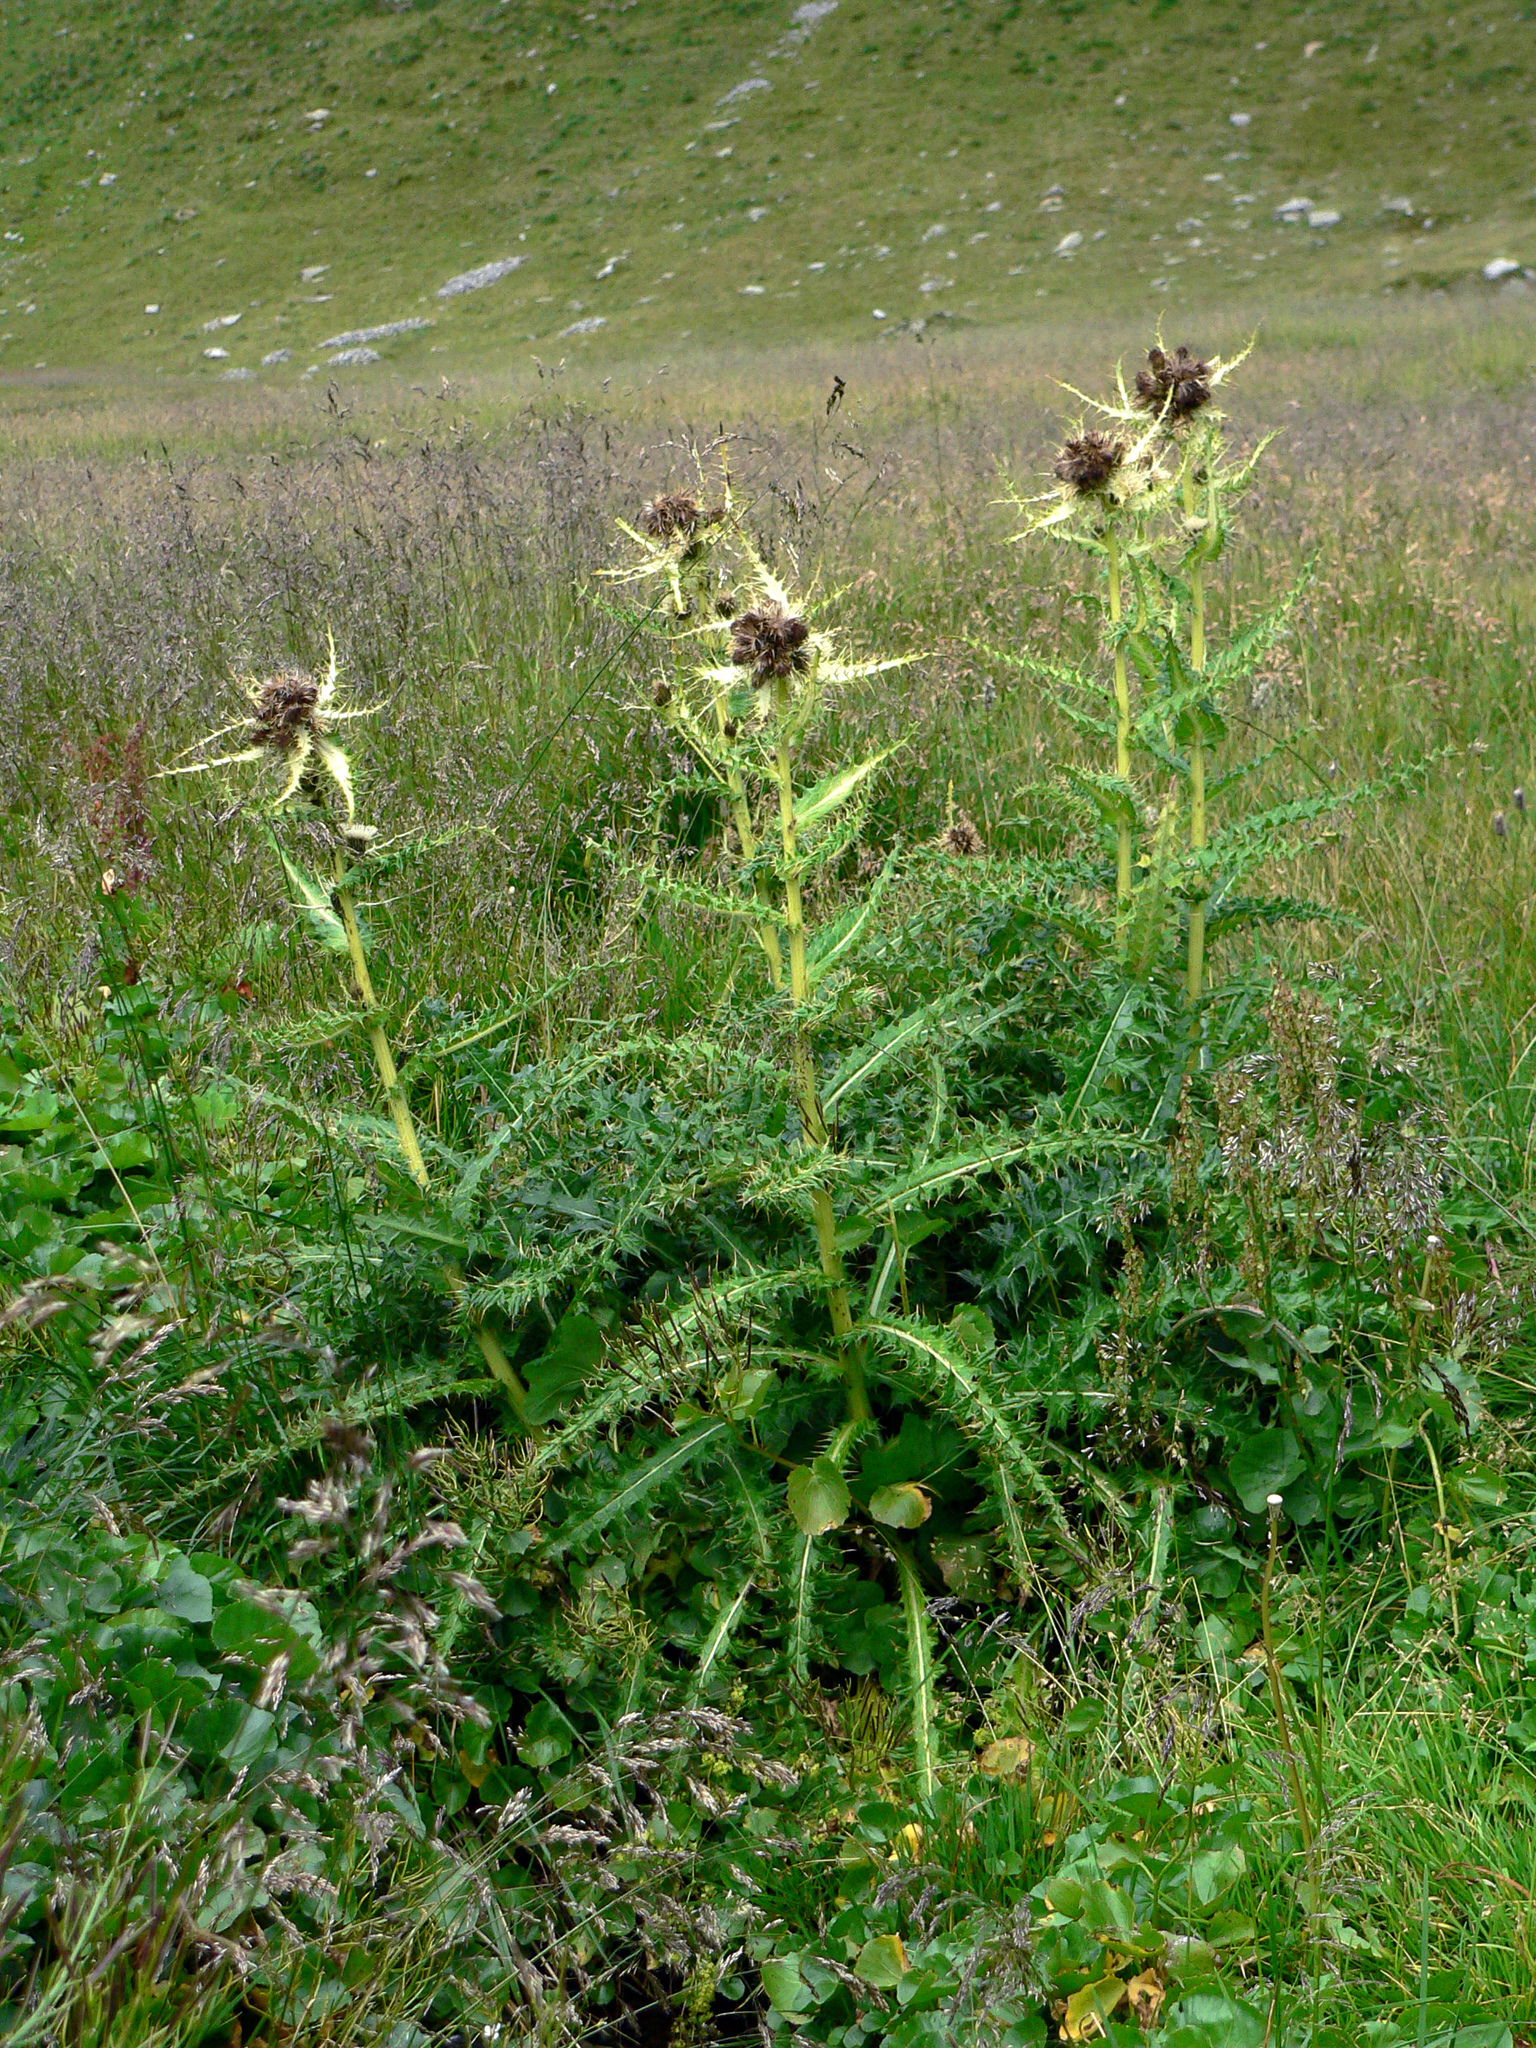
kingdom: Plantae
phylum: Tracheophyta
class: Magnoliopsida
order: Asterales
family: Asteraceae
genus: Cirsium
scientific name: Cirsium spinosissimum
